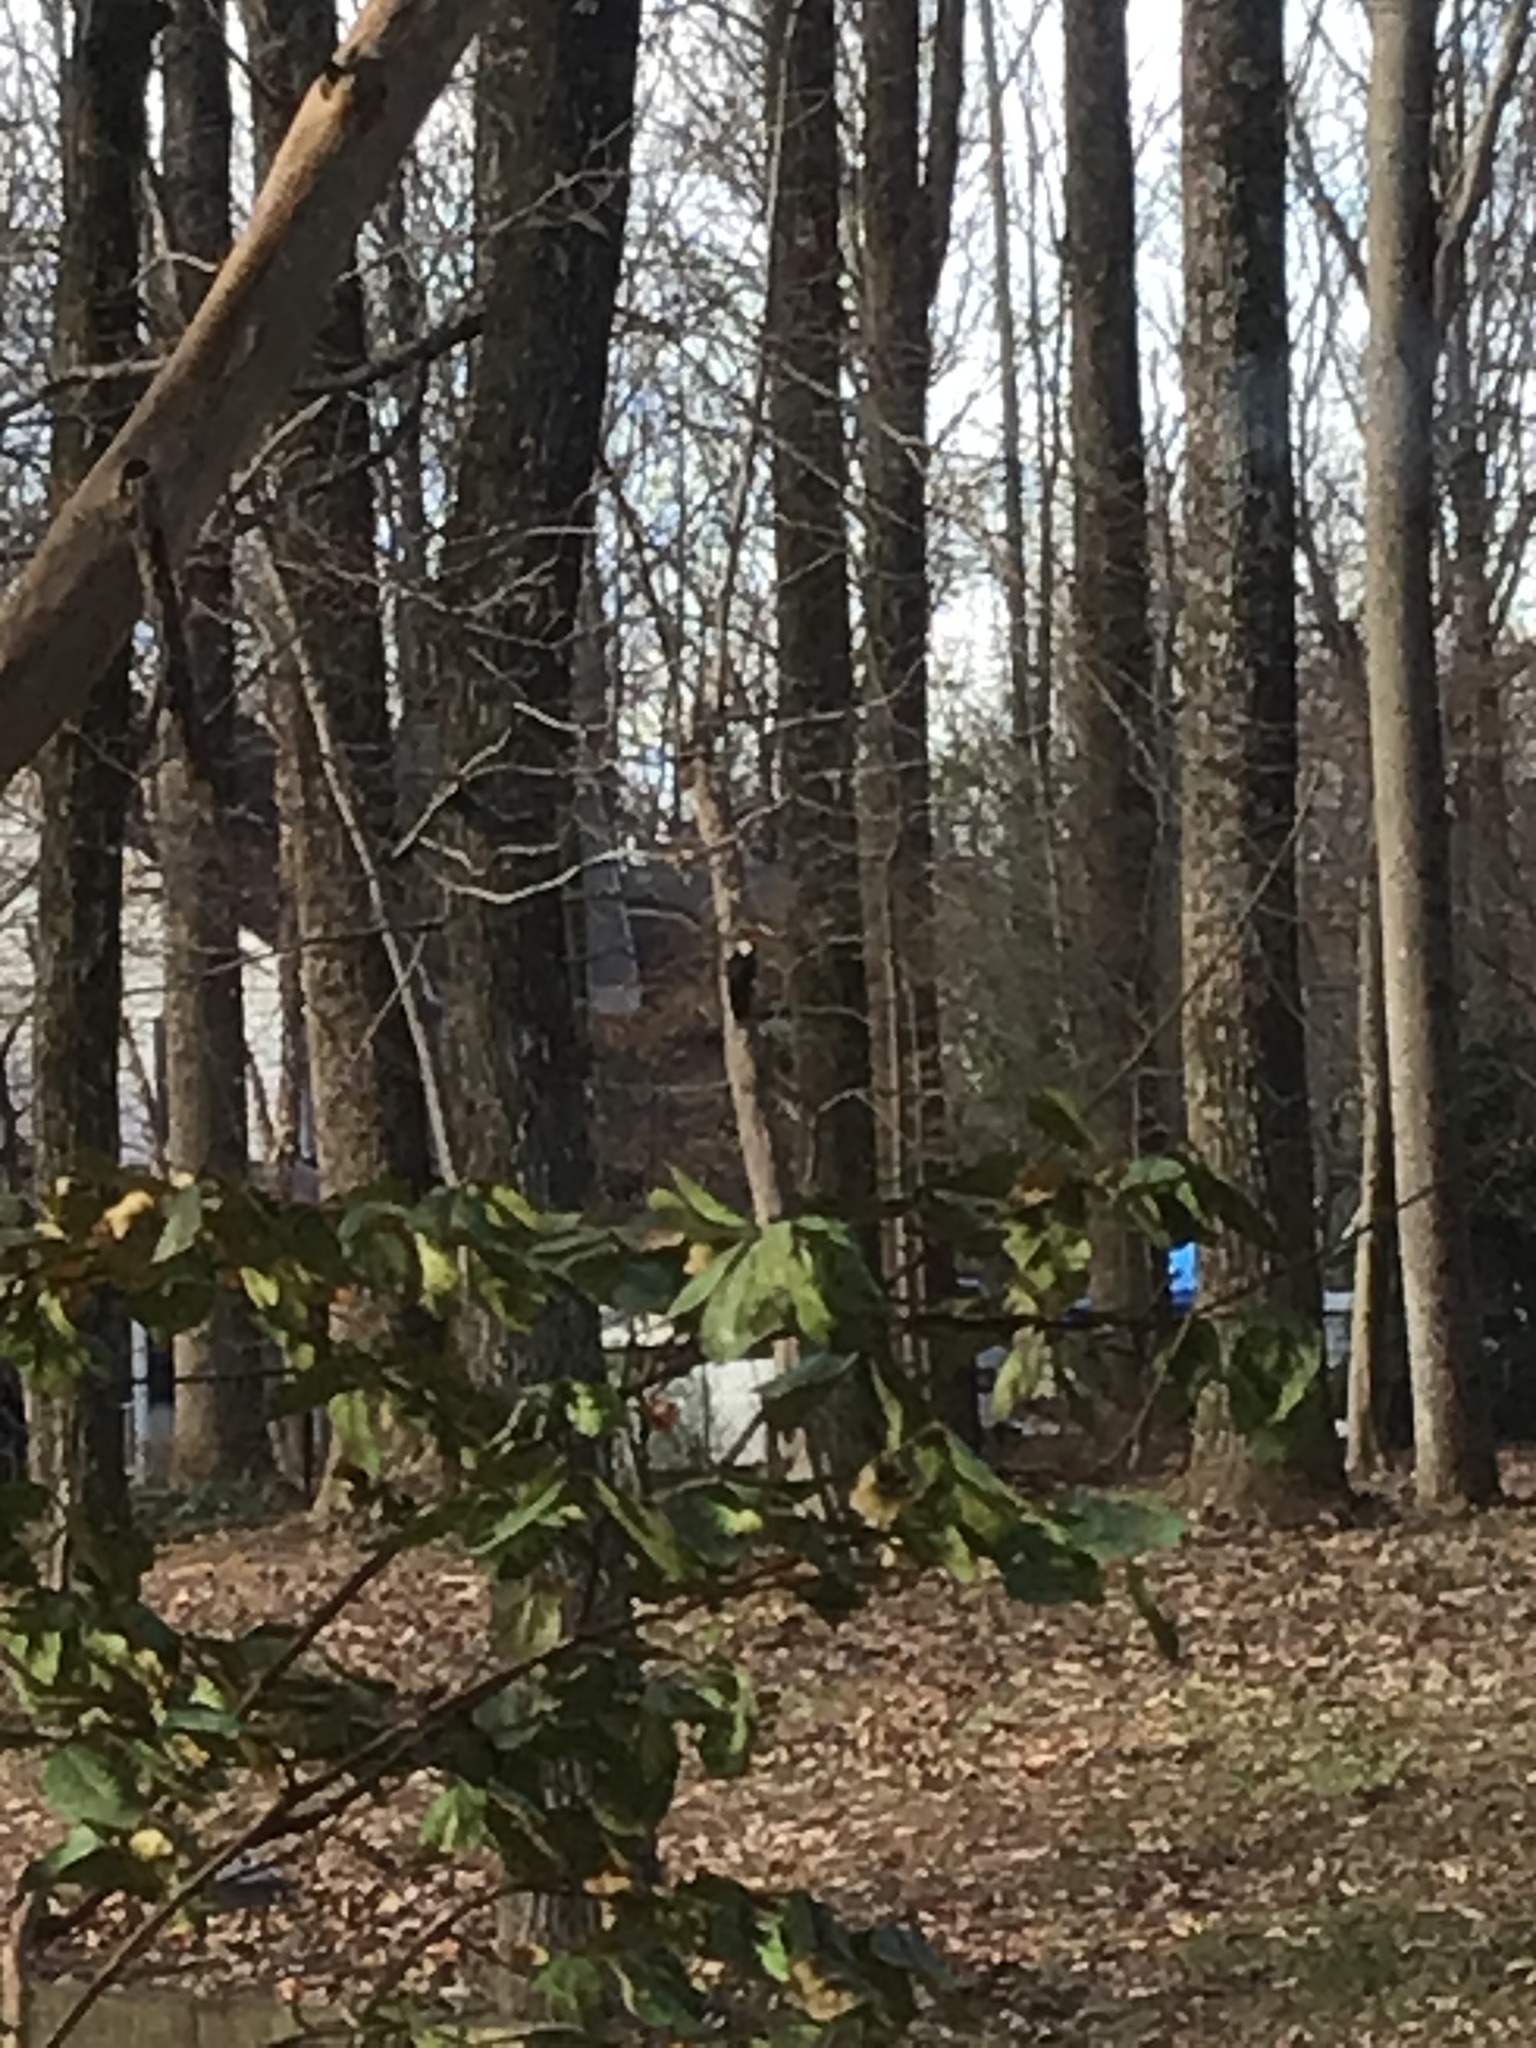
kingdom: Animalia
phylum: Chordata
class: Aves
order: Piciformes
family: Picidae
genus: Dryocopus
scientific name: Dryocopus pileatus
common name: Pileated woodpecker
